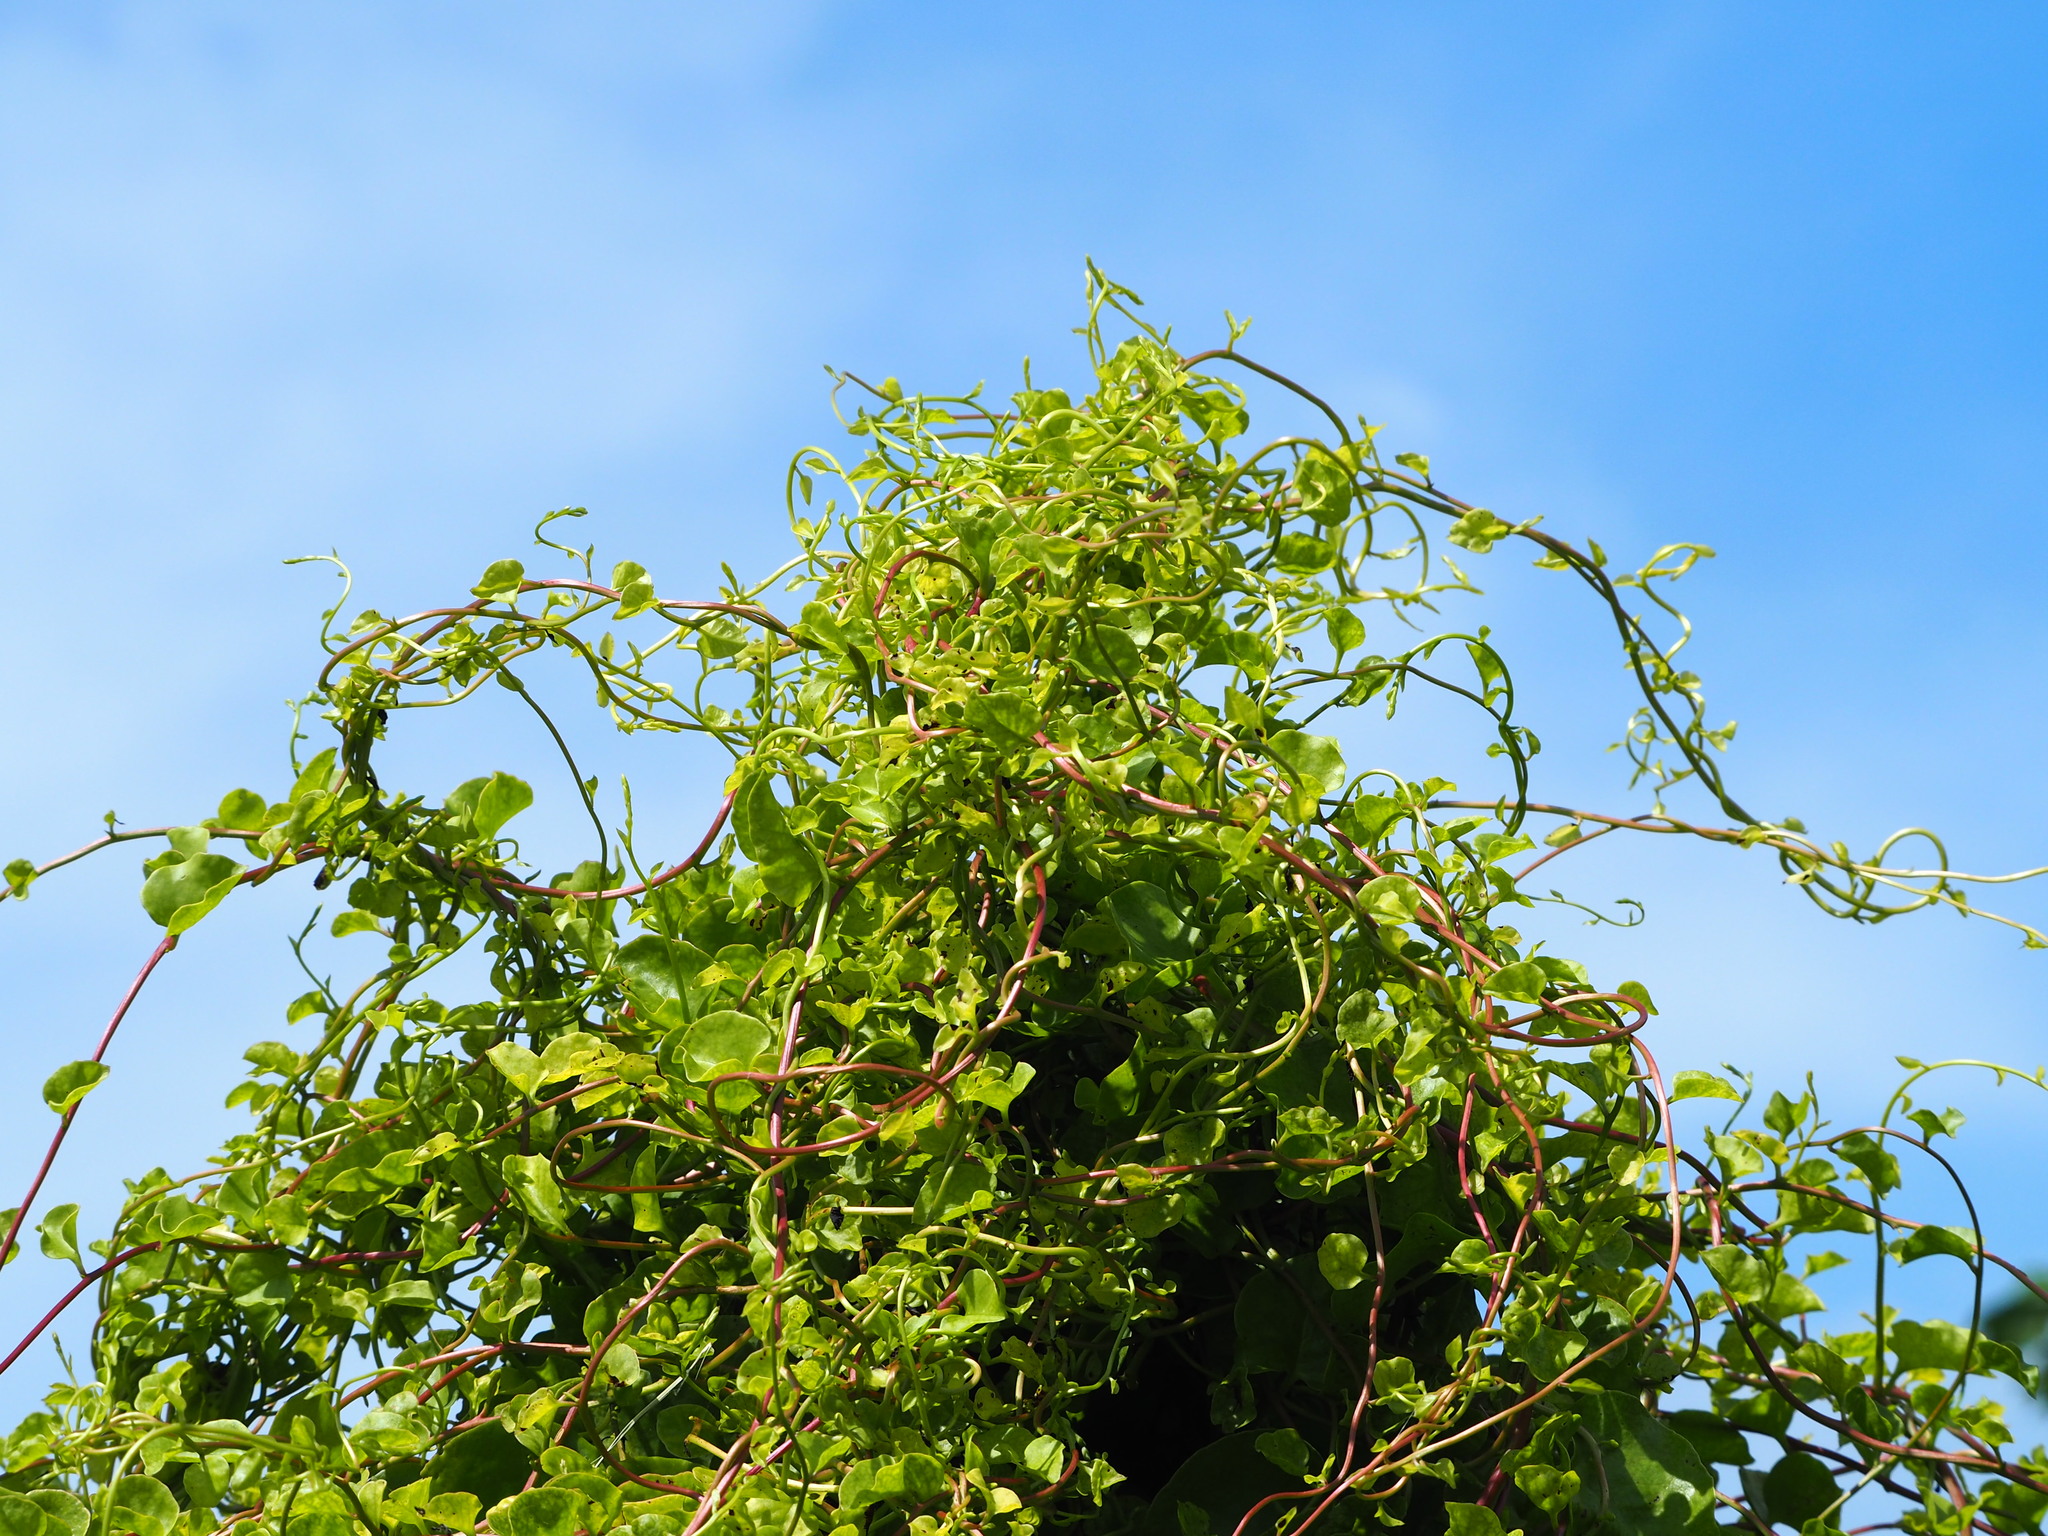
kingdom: Plantae
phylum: Tracheophyta
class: Magnoliopsida
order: Caryophyllales
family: Basellaceae
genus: Anredera
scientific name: Anredera cordifolia
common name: Heartleaf madeiravine
